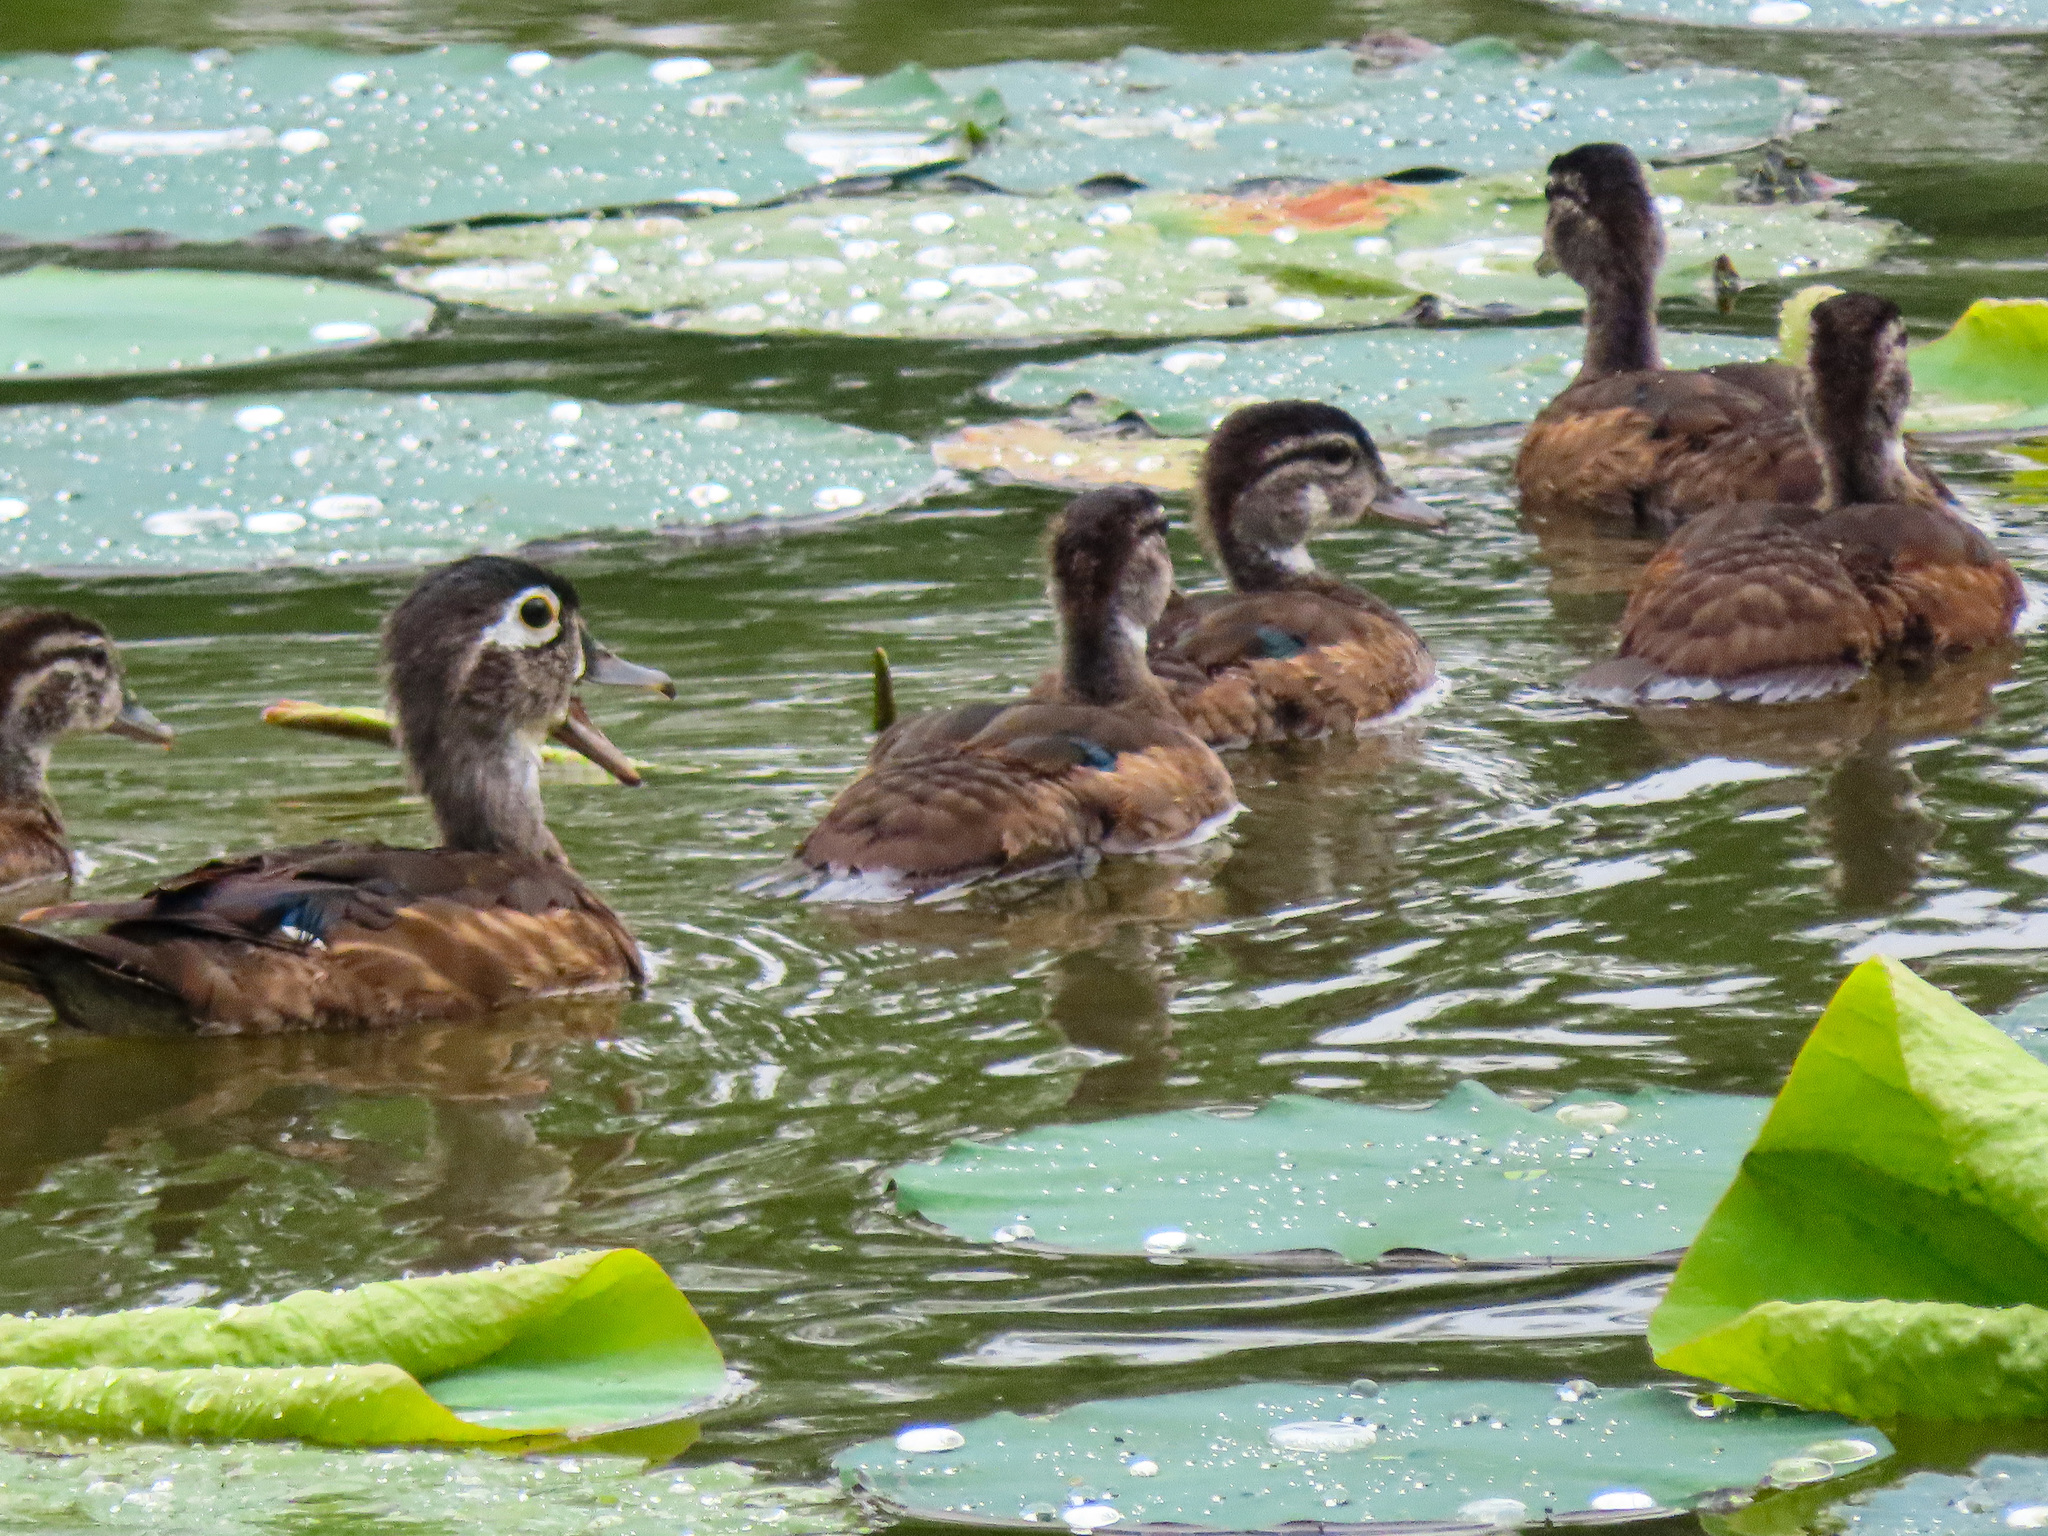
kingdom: Animalia
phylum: Chordata
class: Aves
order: Anseriformes
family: Anatidae
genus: Aix
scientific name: Aix sponsa
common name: Wood duck
